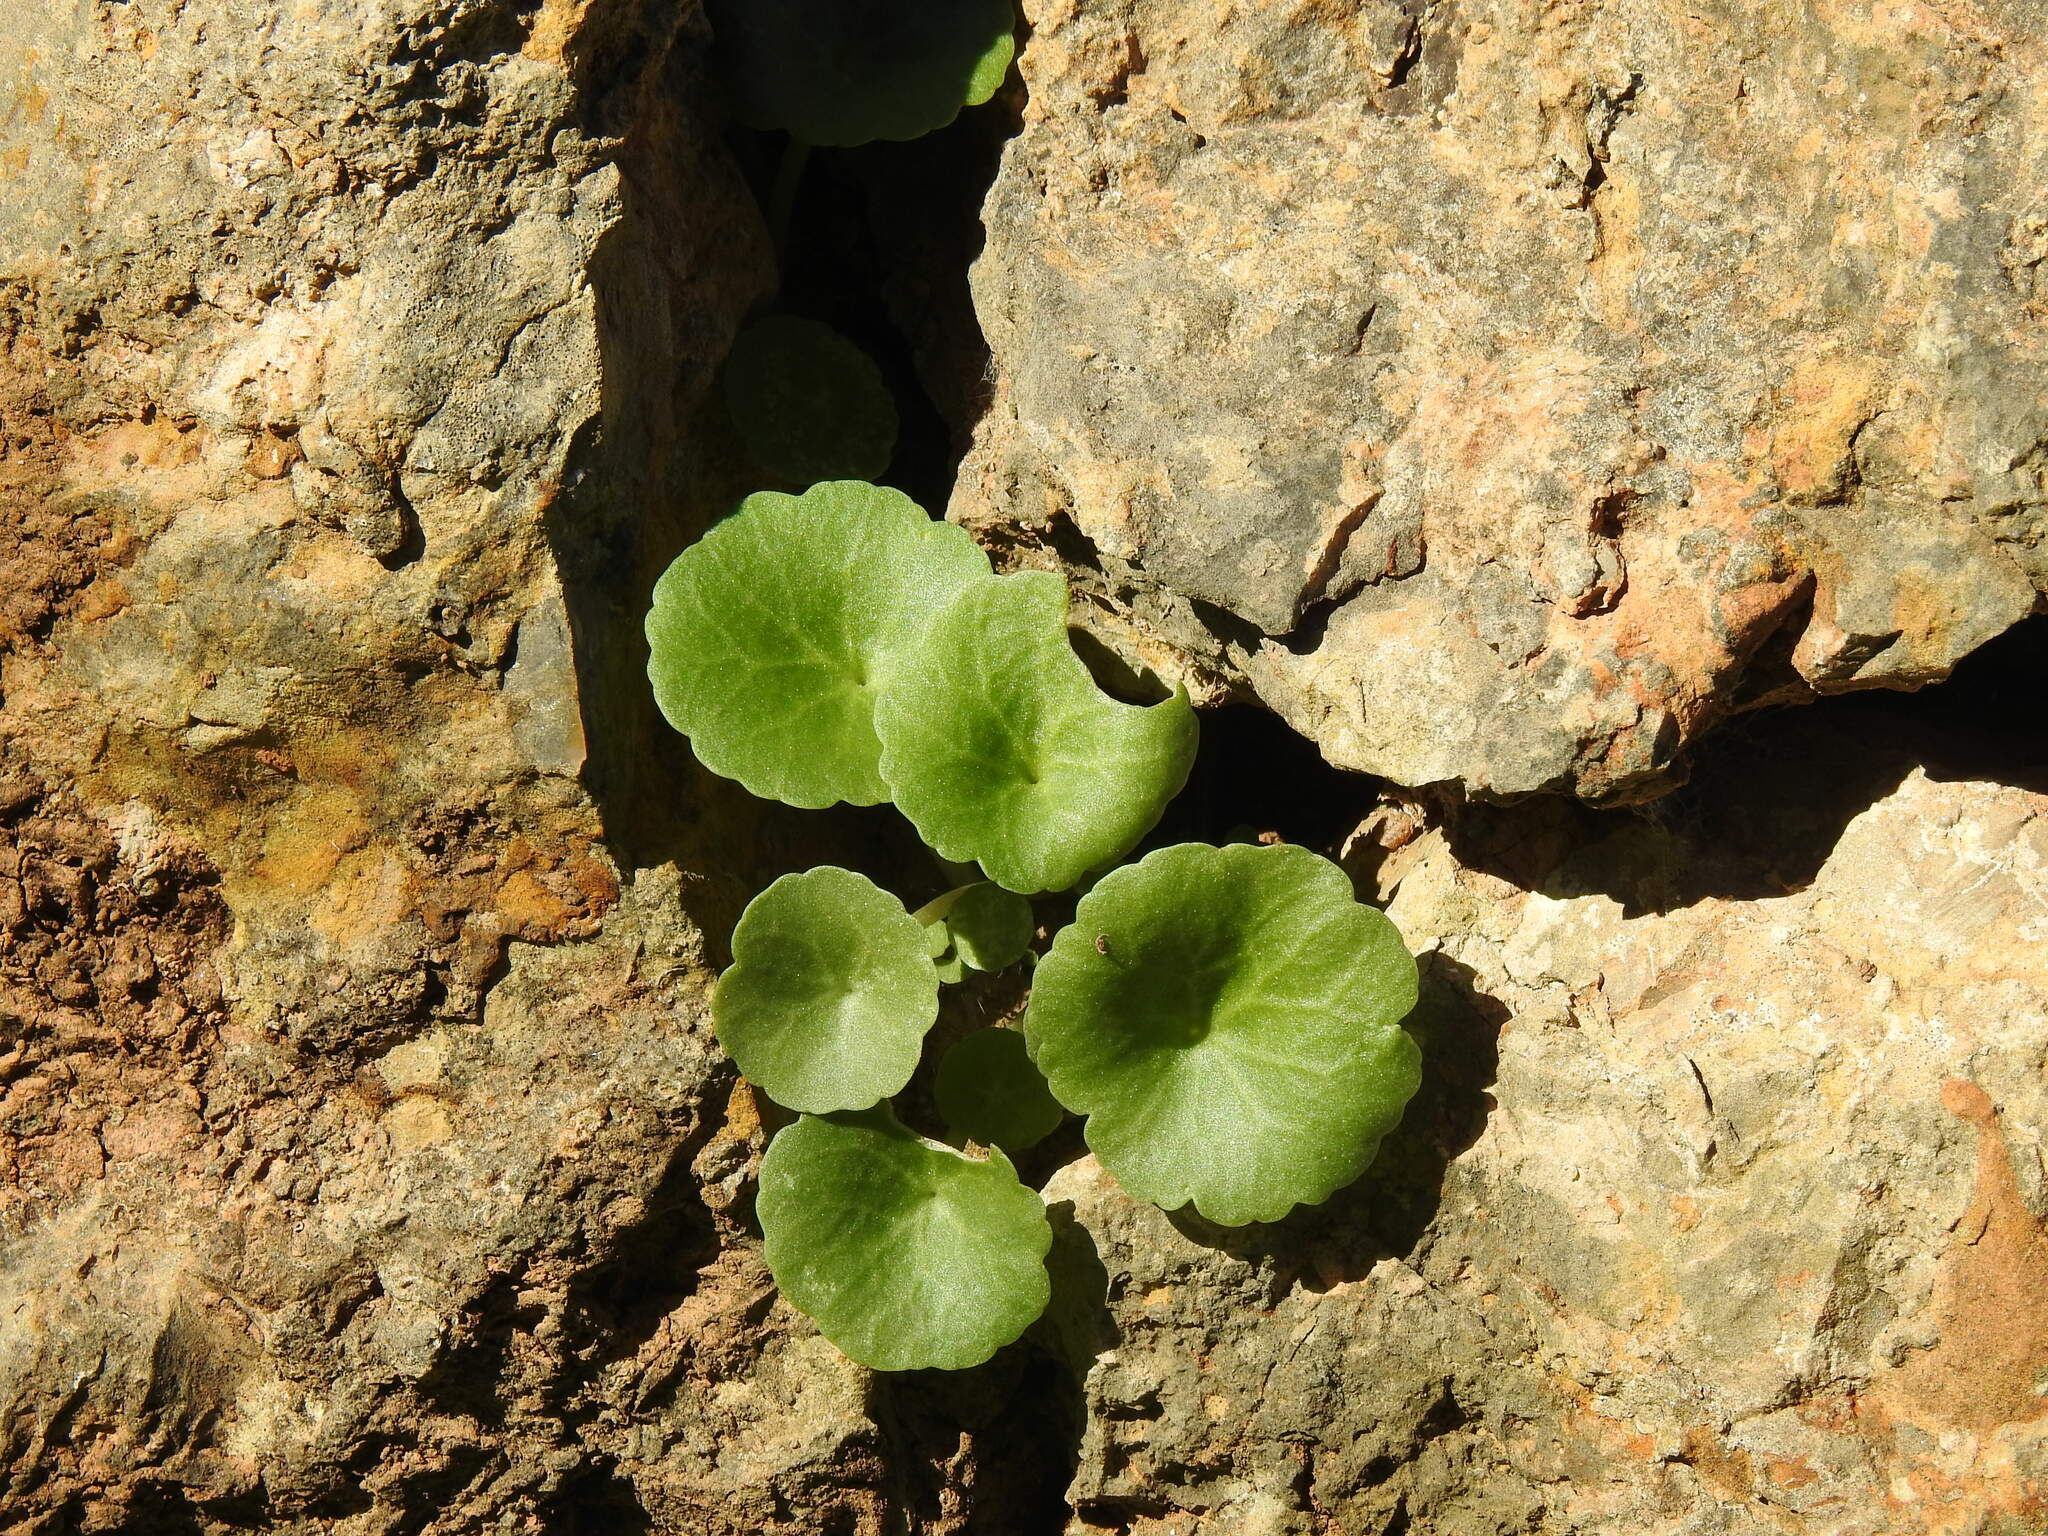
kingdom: Plantae
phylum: Tracheophyta
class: Magnoliopsida
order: Saxifragales
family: Crassulaceae
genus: Umbilicus
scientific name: Umbilicus rupestris
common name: Navelwort
